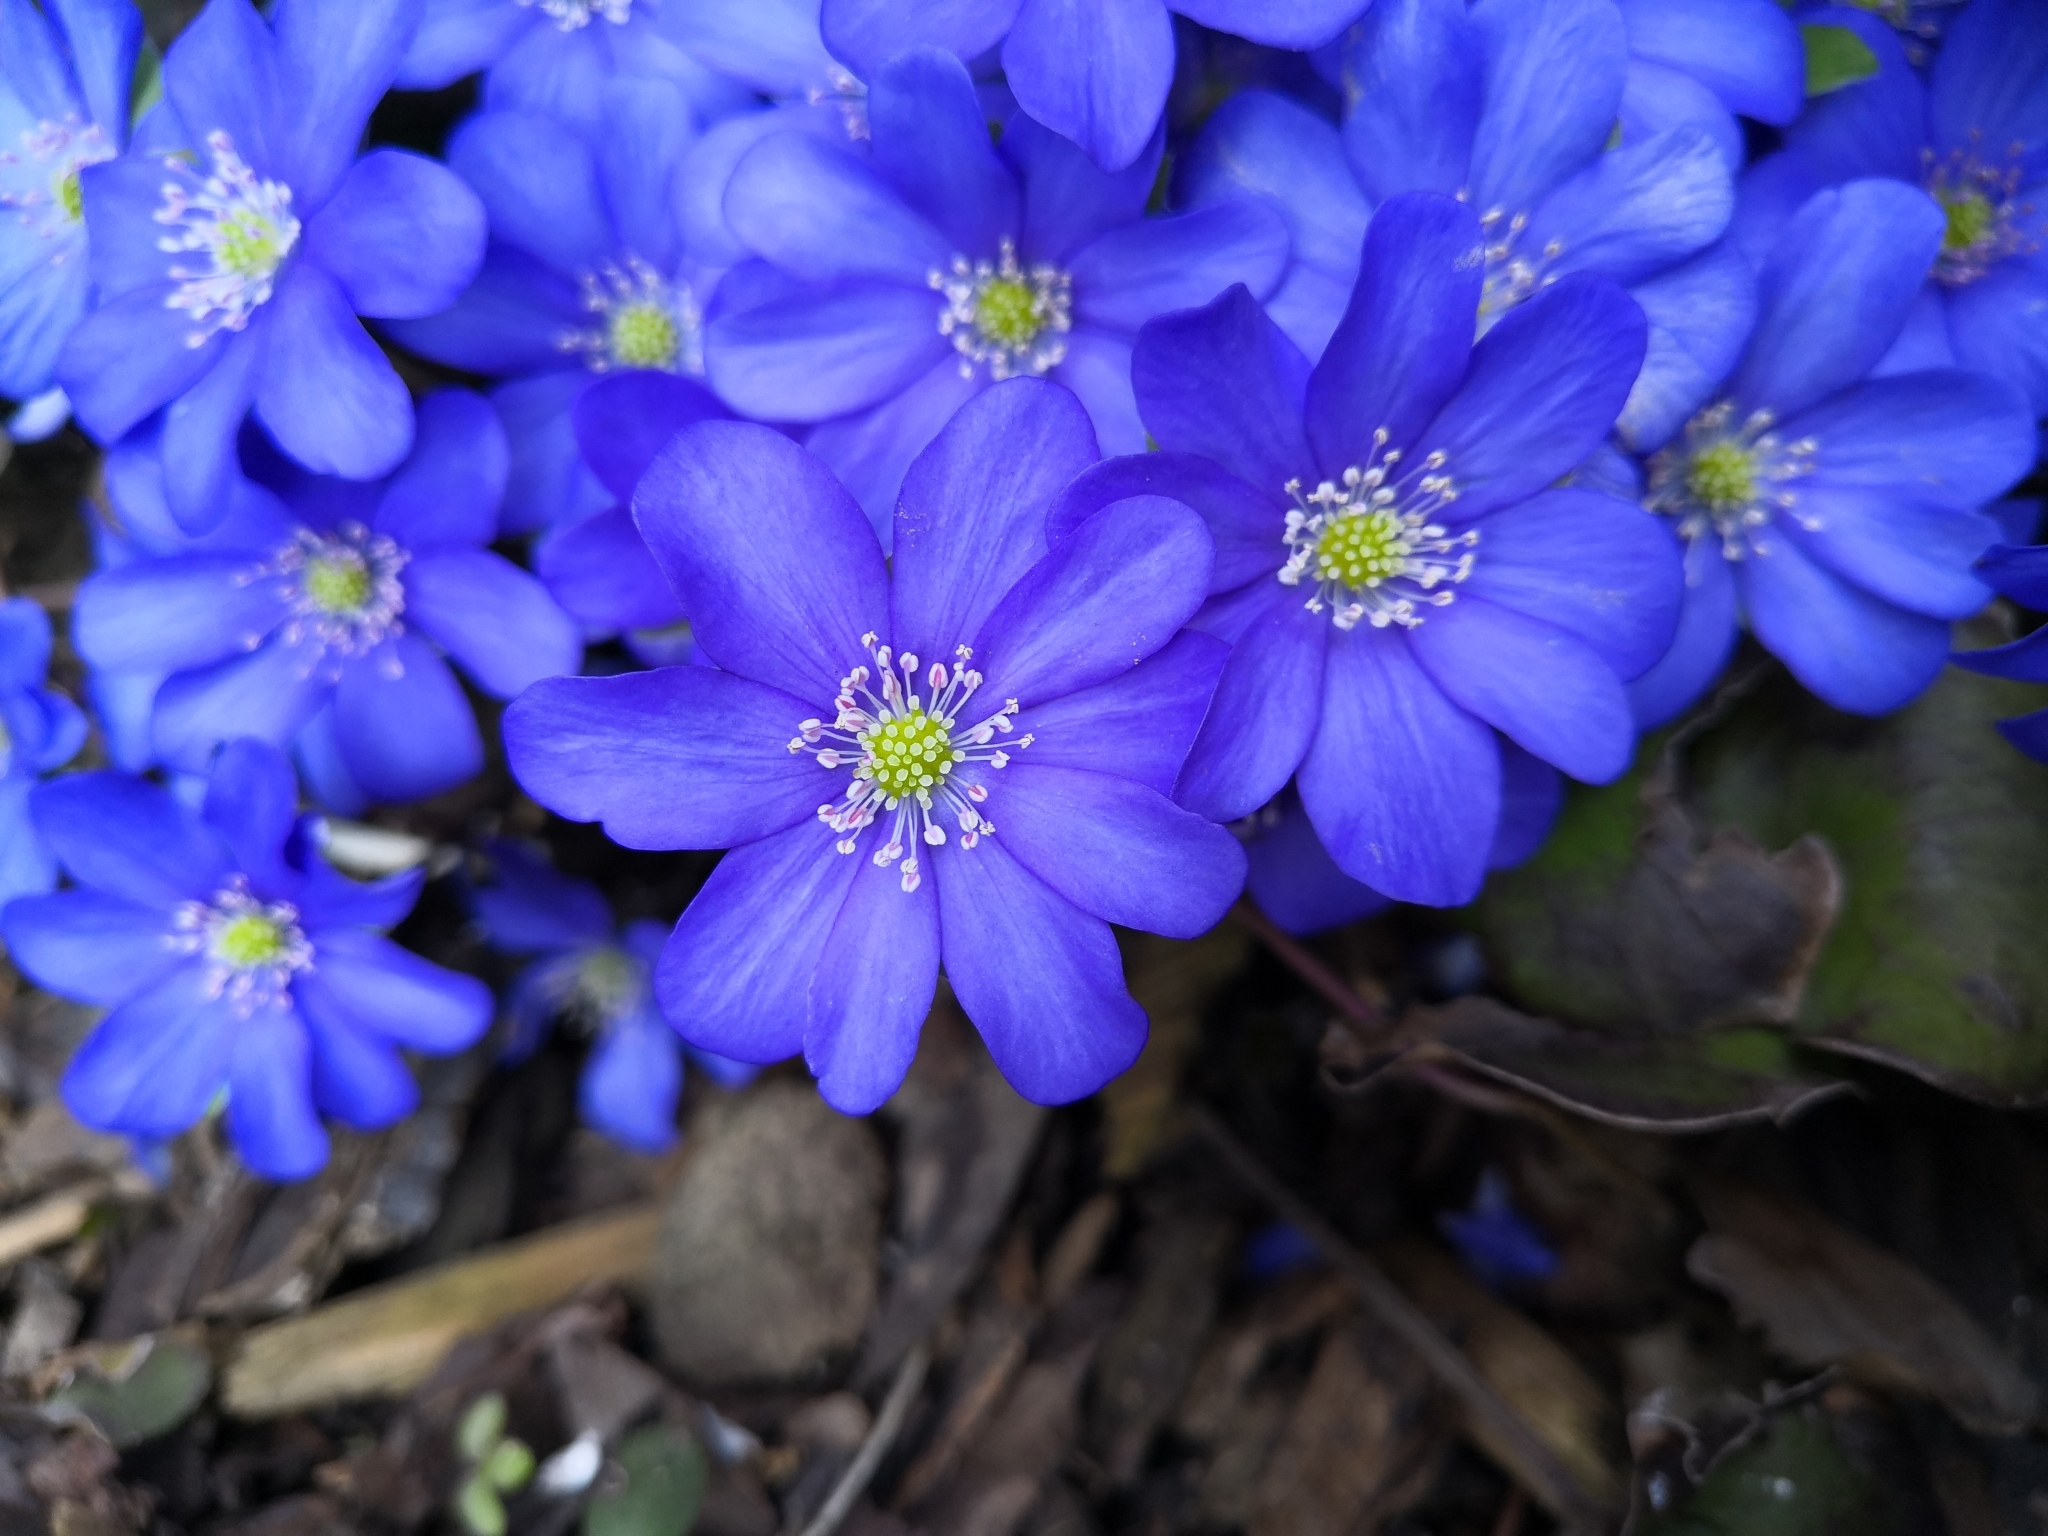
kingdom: Plantae
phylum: Tracheophyta
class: Magnoliopsida
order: Ranunculales
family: Ranunculaceae
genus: Hepatica
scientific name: Hepatica nobilis
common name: Liverleaf
